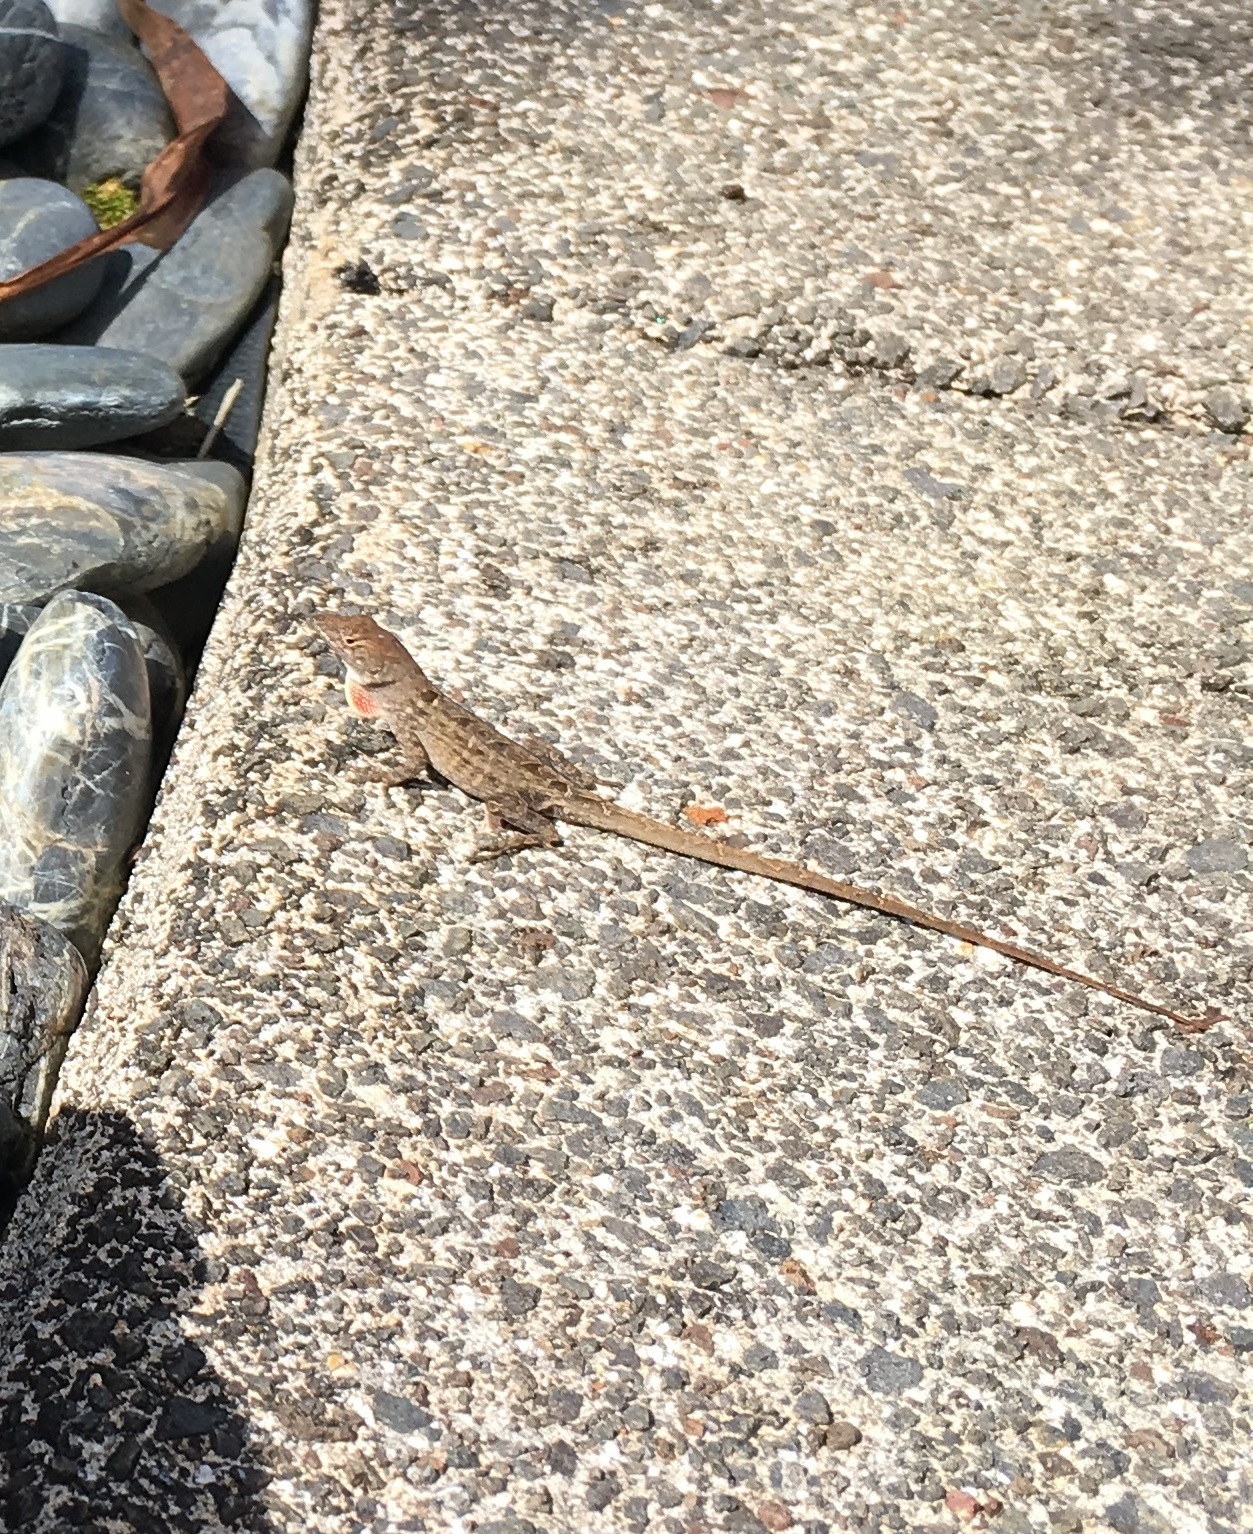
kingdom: Animalia
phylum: Chordata
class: Squamata
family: Dactyloidae
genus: Anolis
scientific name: Anolis sagrei
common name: Brown anole
